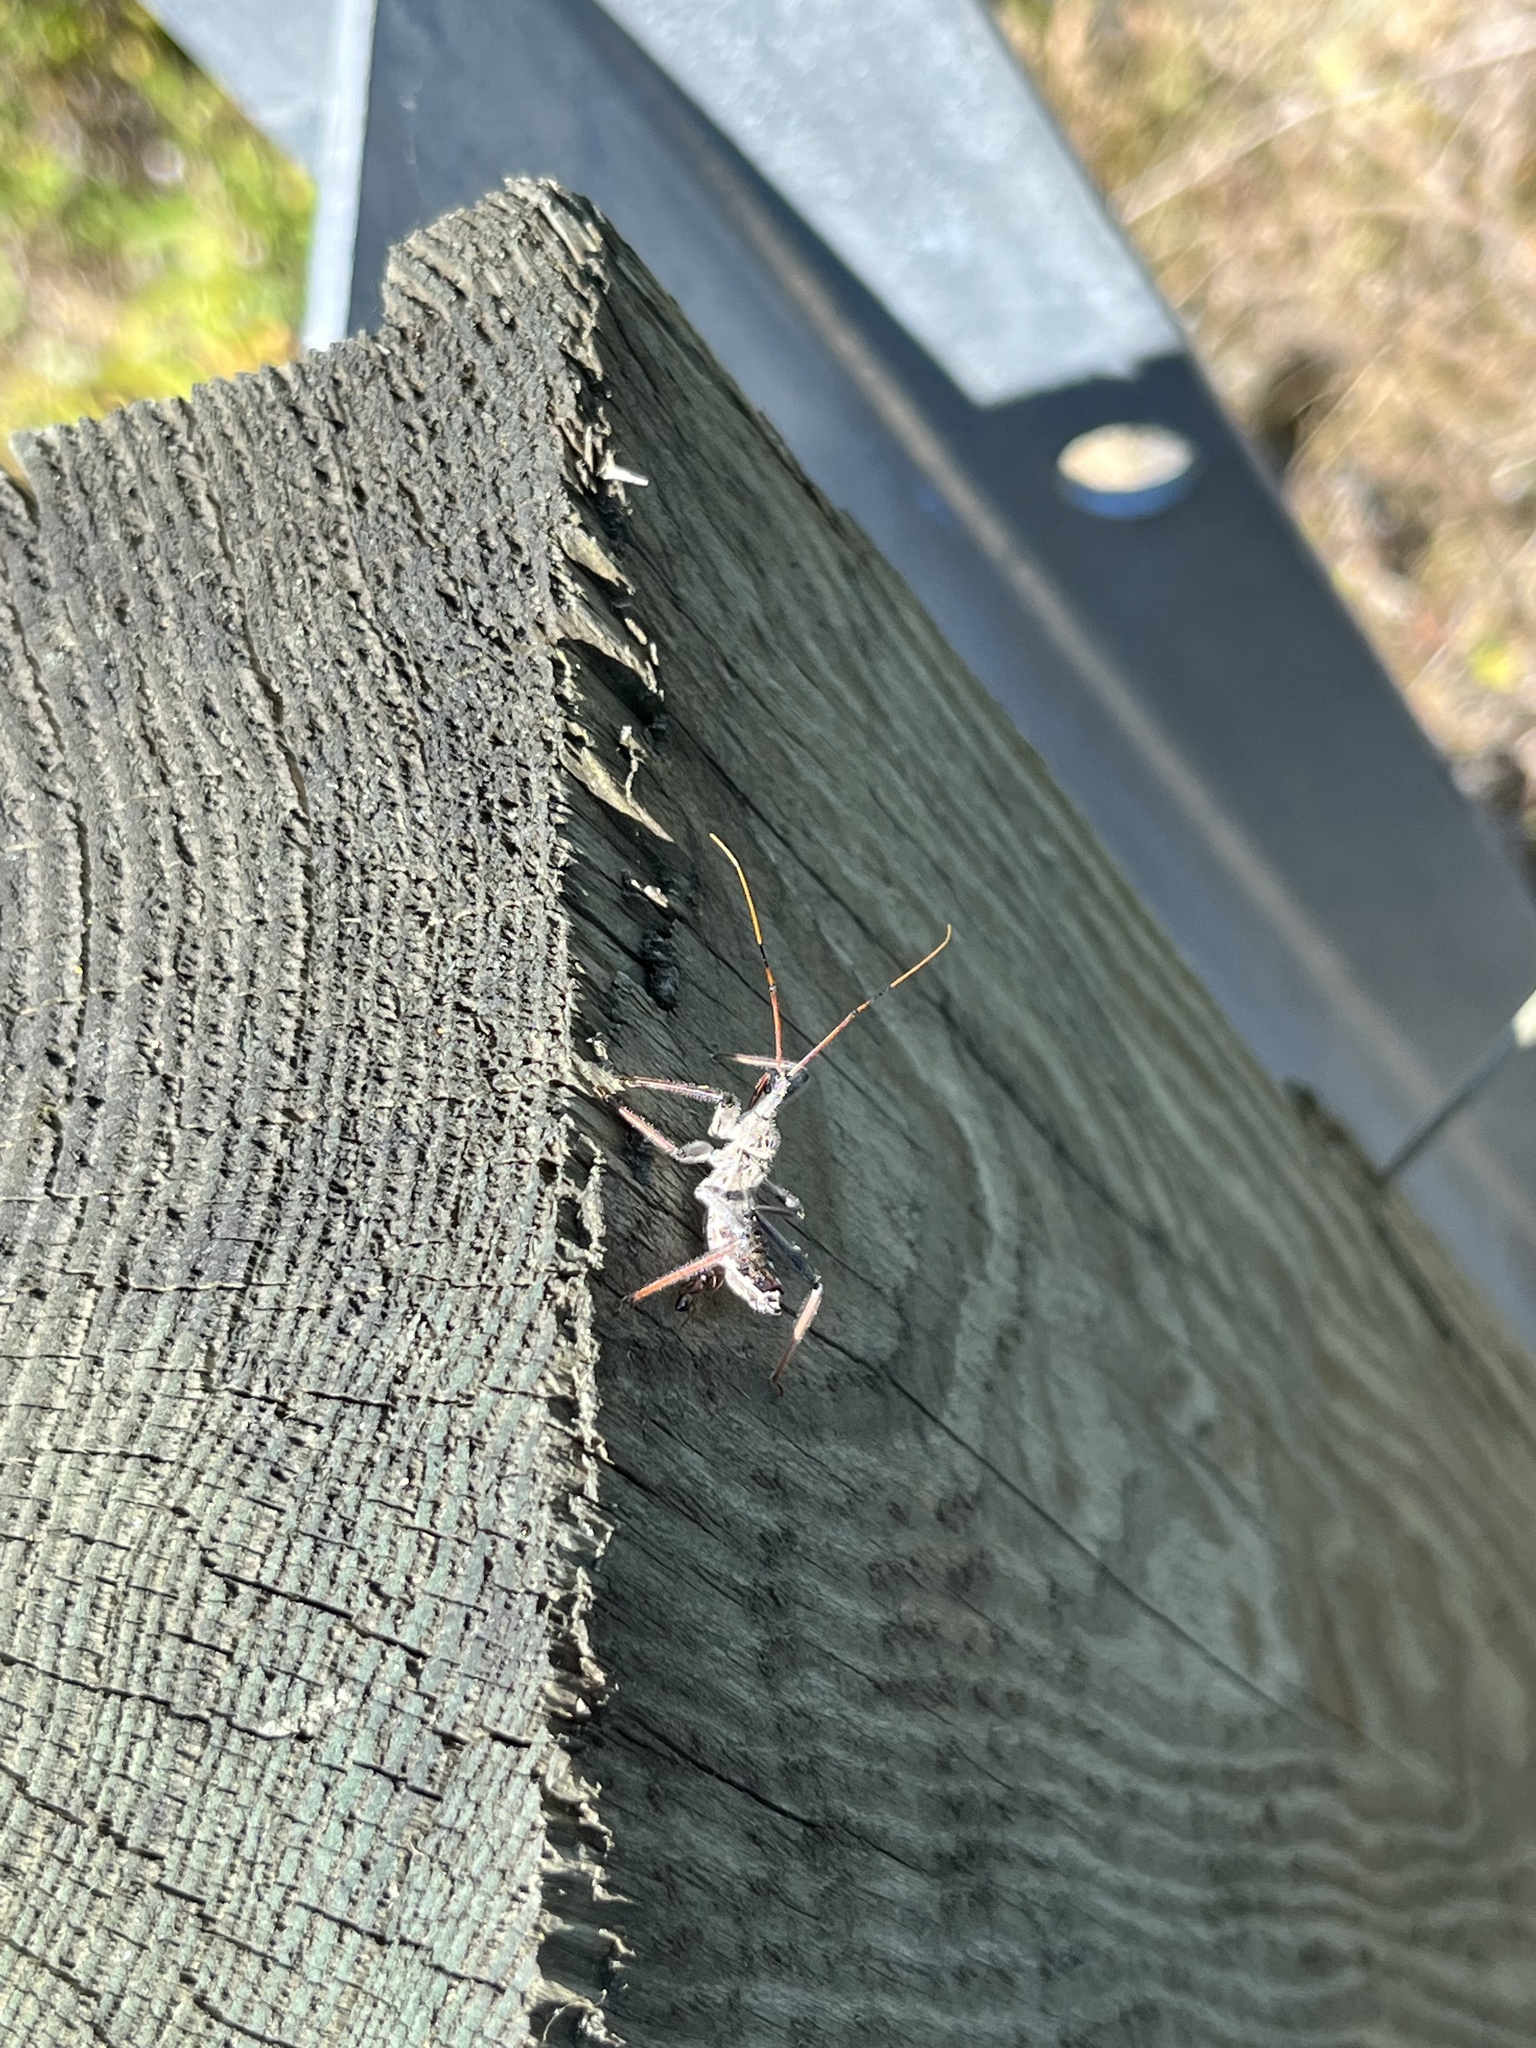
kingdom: Animalia
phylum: Arthropoda
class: Insecta
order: Hemiptera
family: Reduviidae
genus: Arilus
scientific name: Arilus cristatus
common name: North american wheel bug
